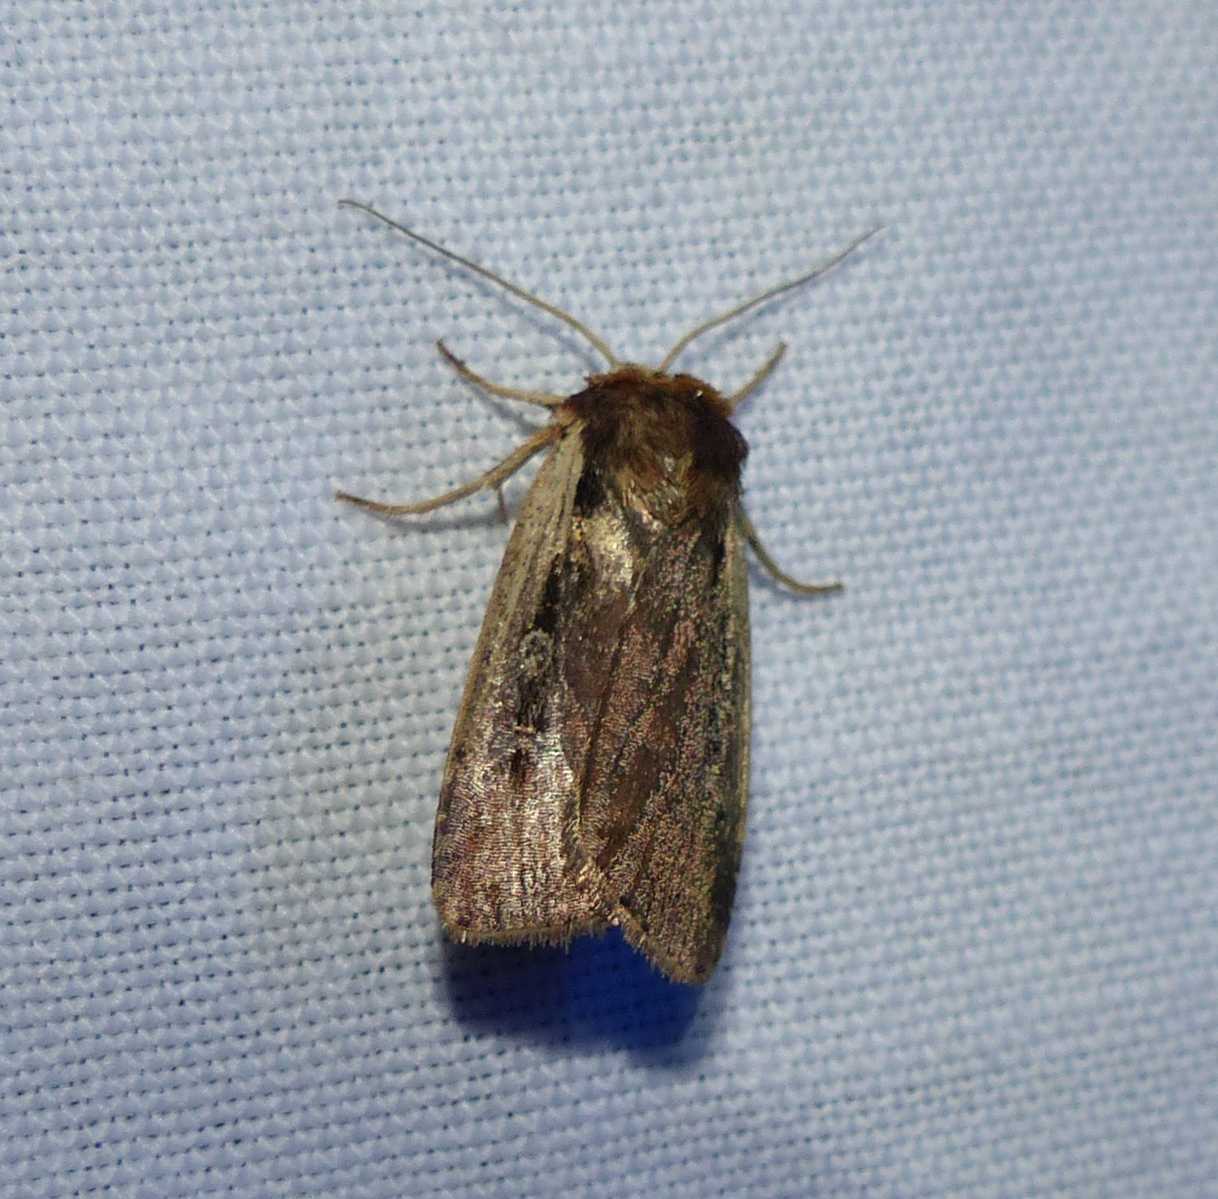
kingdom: Animalia
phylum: Arthropoda
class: Insecta
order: Lepidoptera
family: Noctuidae
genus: Ochropleura
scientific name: Ochropleura implecta
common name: Flame-shouldered dart
